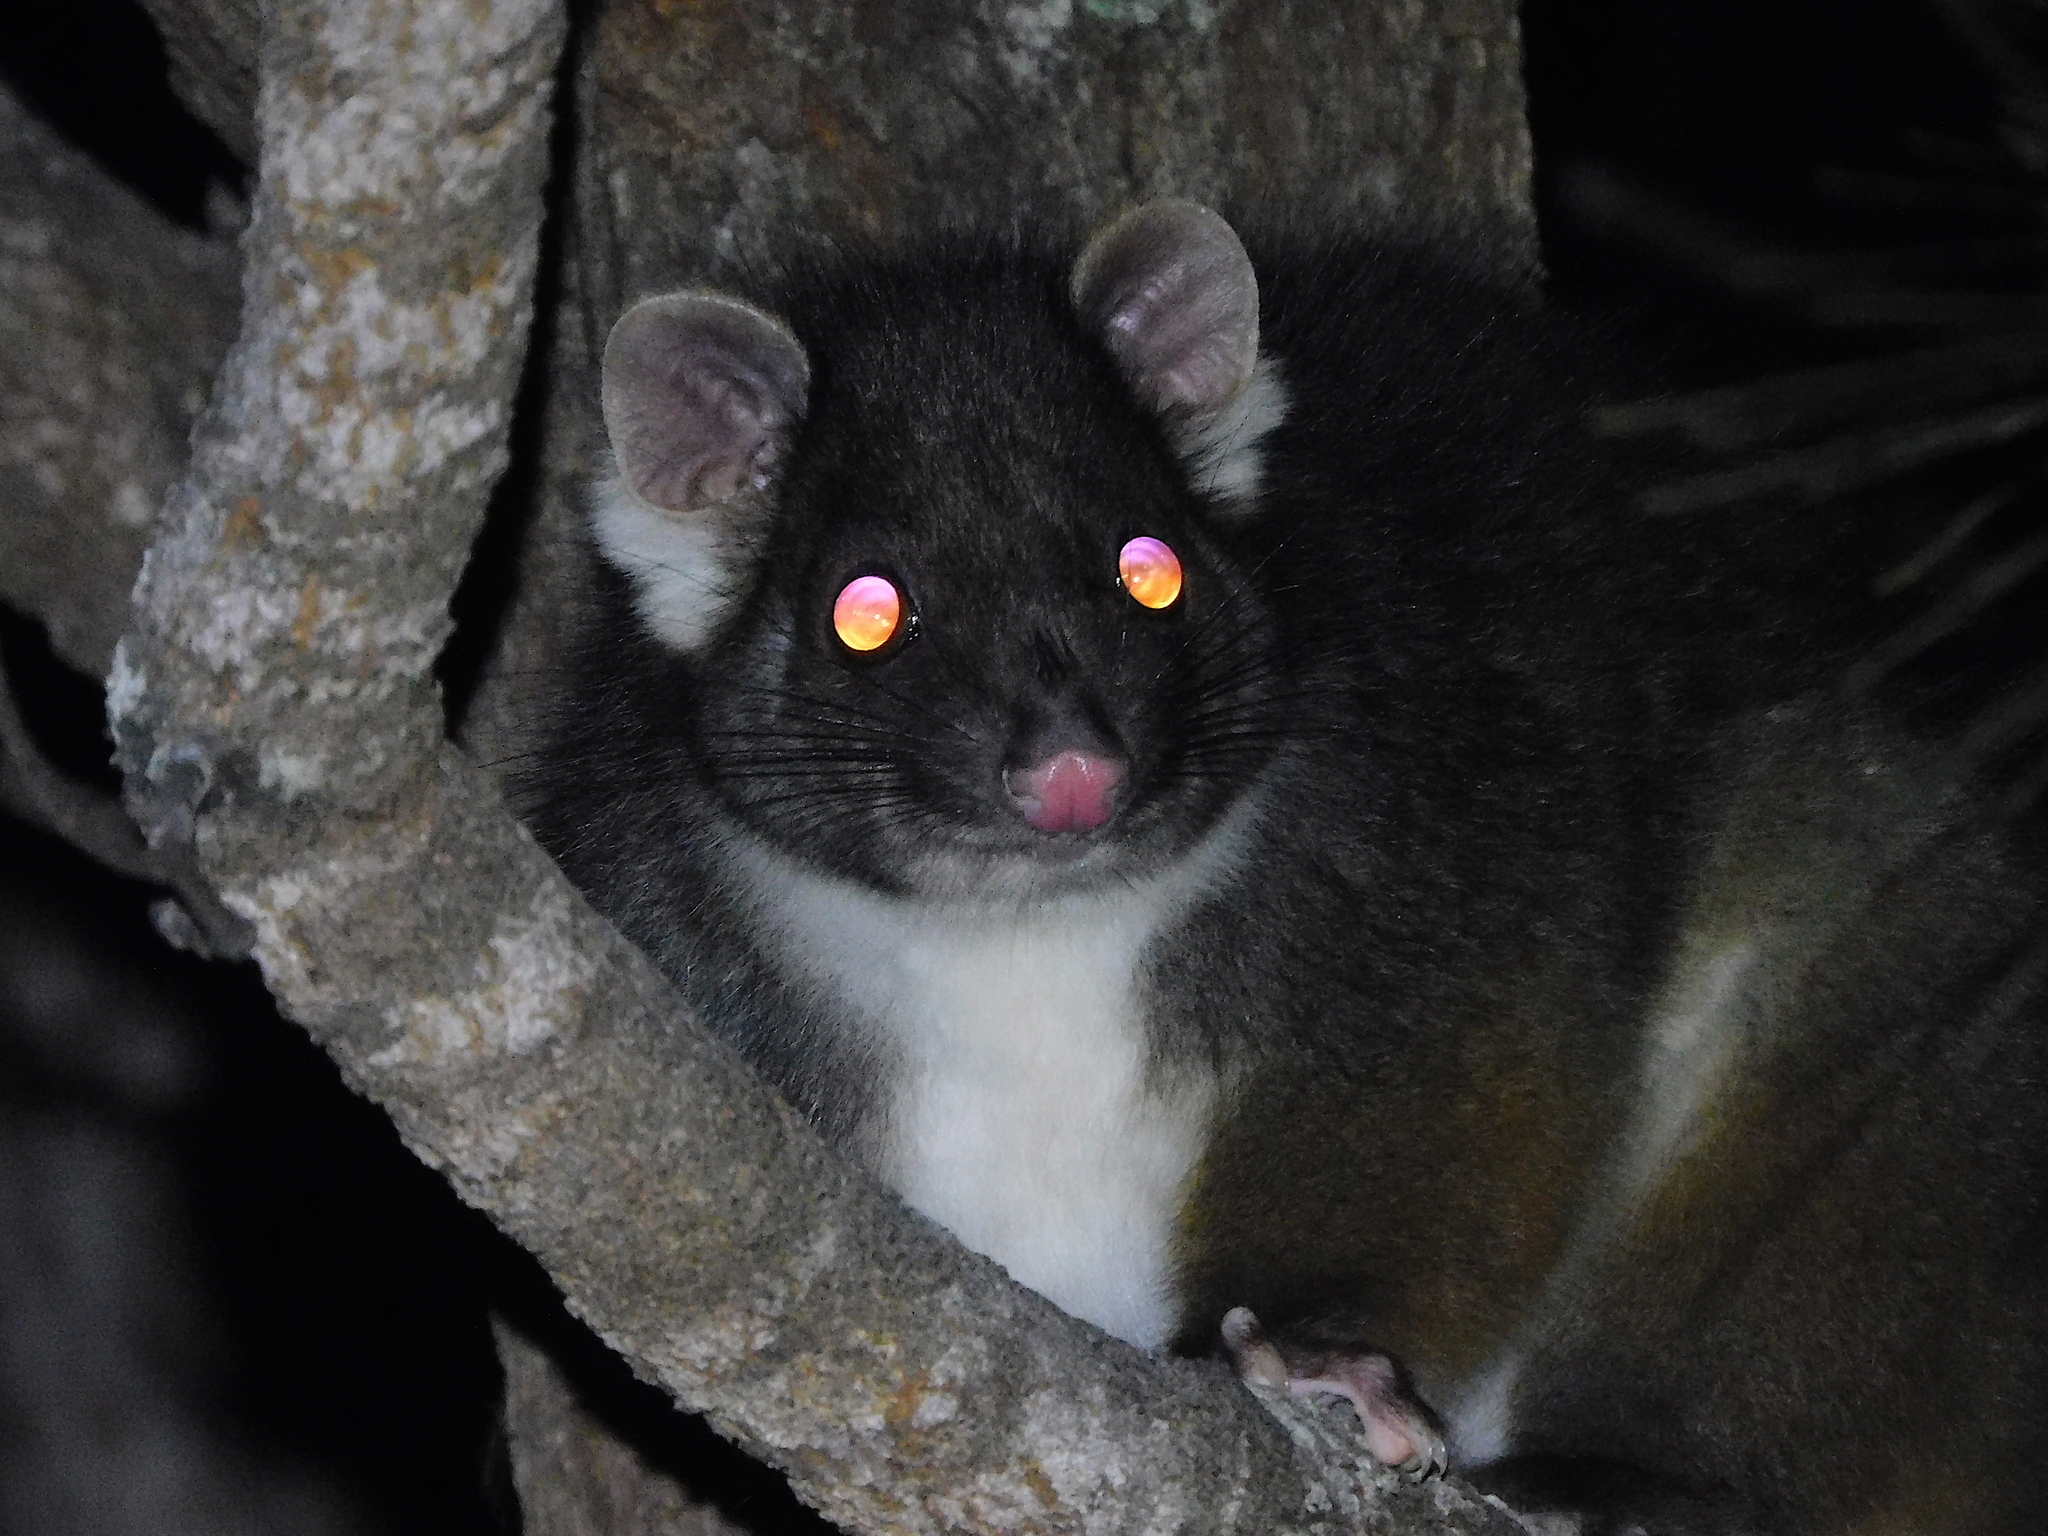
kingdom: Animalia
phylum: Chordata
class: Mammalia
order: Diprotodontia
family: Pseudocheiridae
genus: Pseudocheirus
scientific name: Pseudocheirus peregrinus
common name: Common ringtail possum
